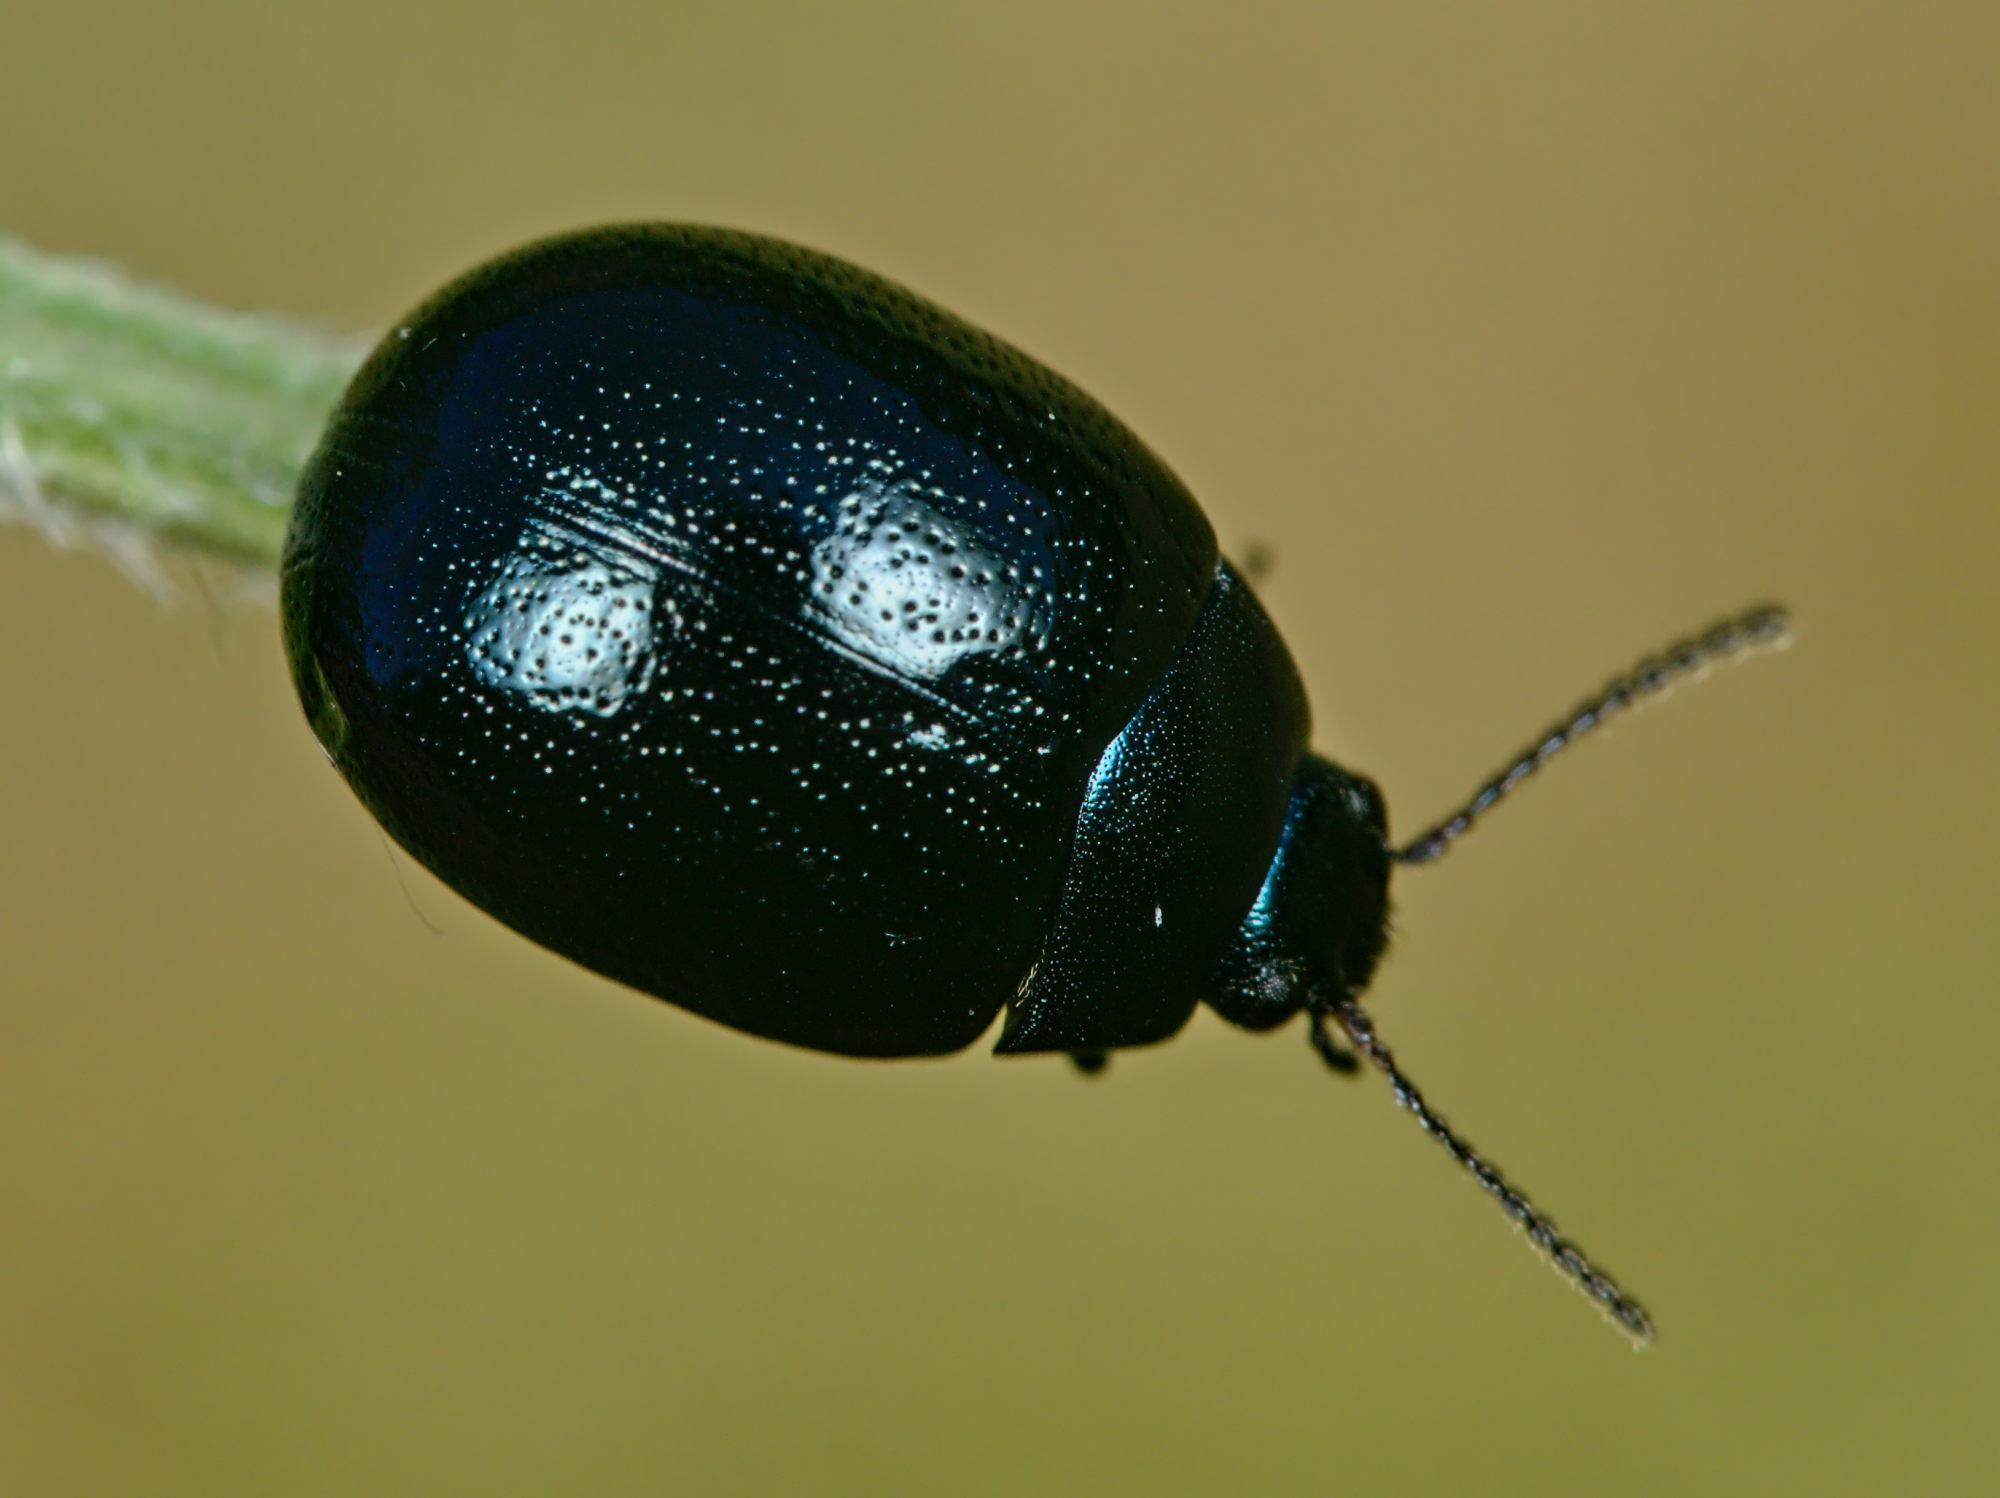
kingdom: Animalia
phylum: Arthropoda
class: Insecta
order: Coleoptera
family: Chrysomelidae
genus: Chrysolina
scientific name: Chrysolina haemoptera
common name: Plantain leaf beetle
